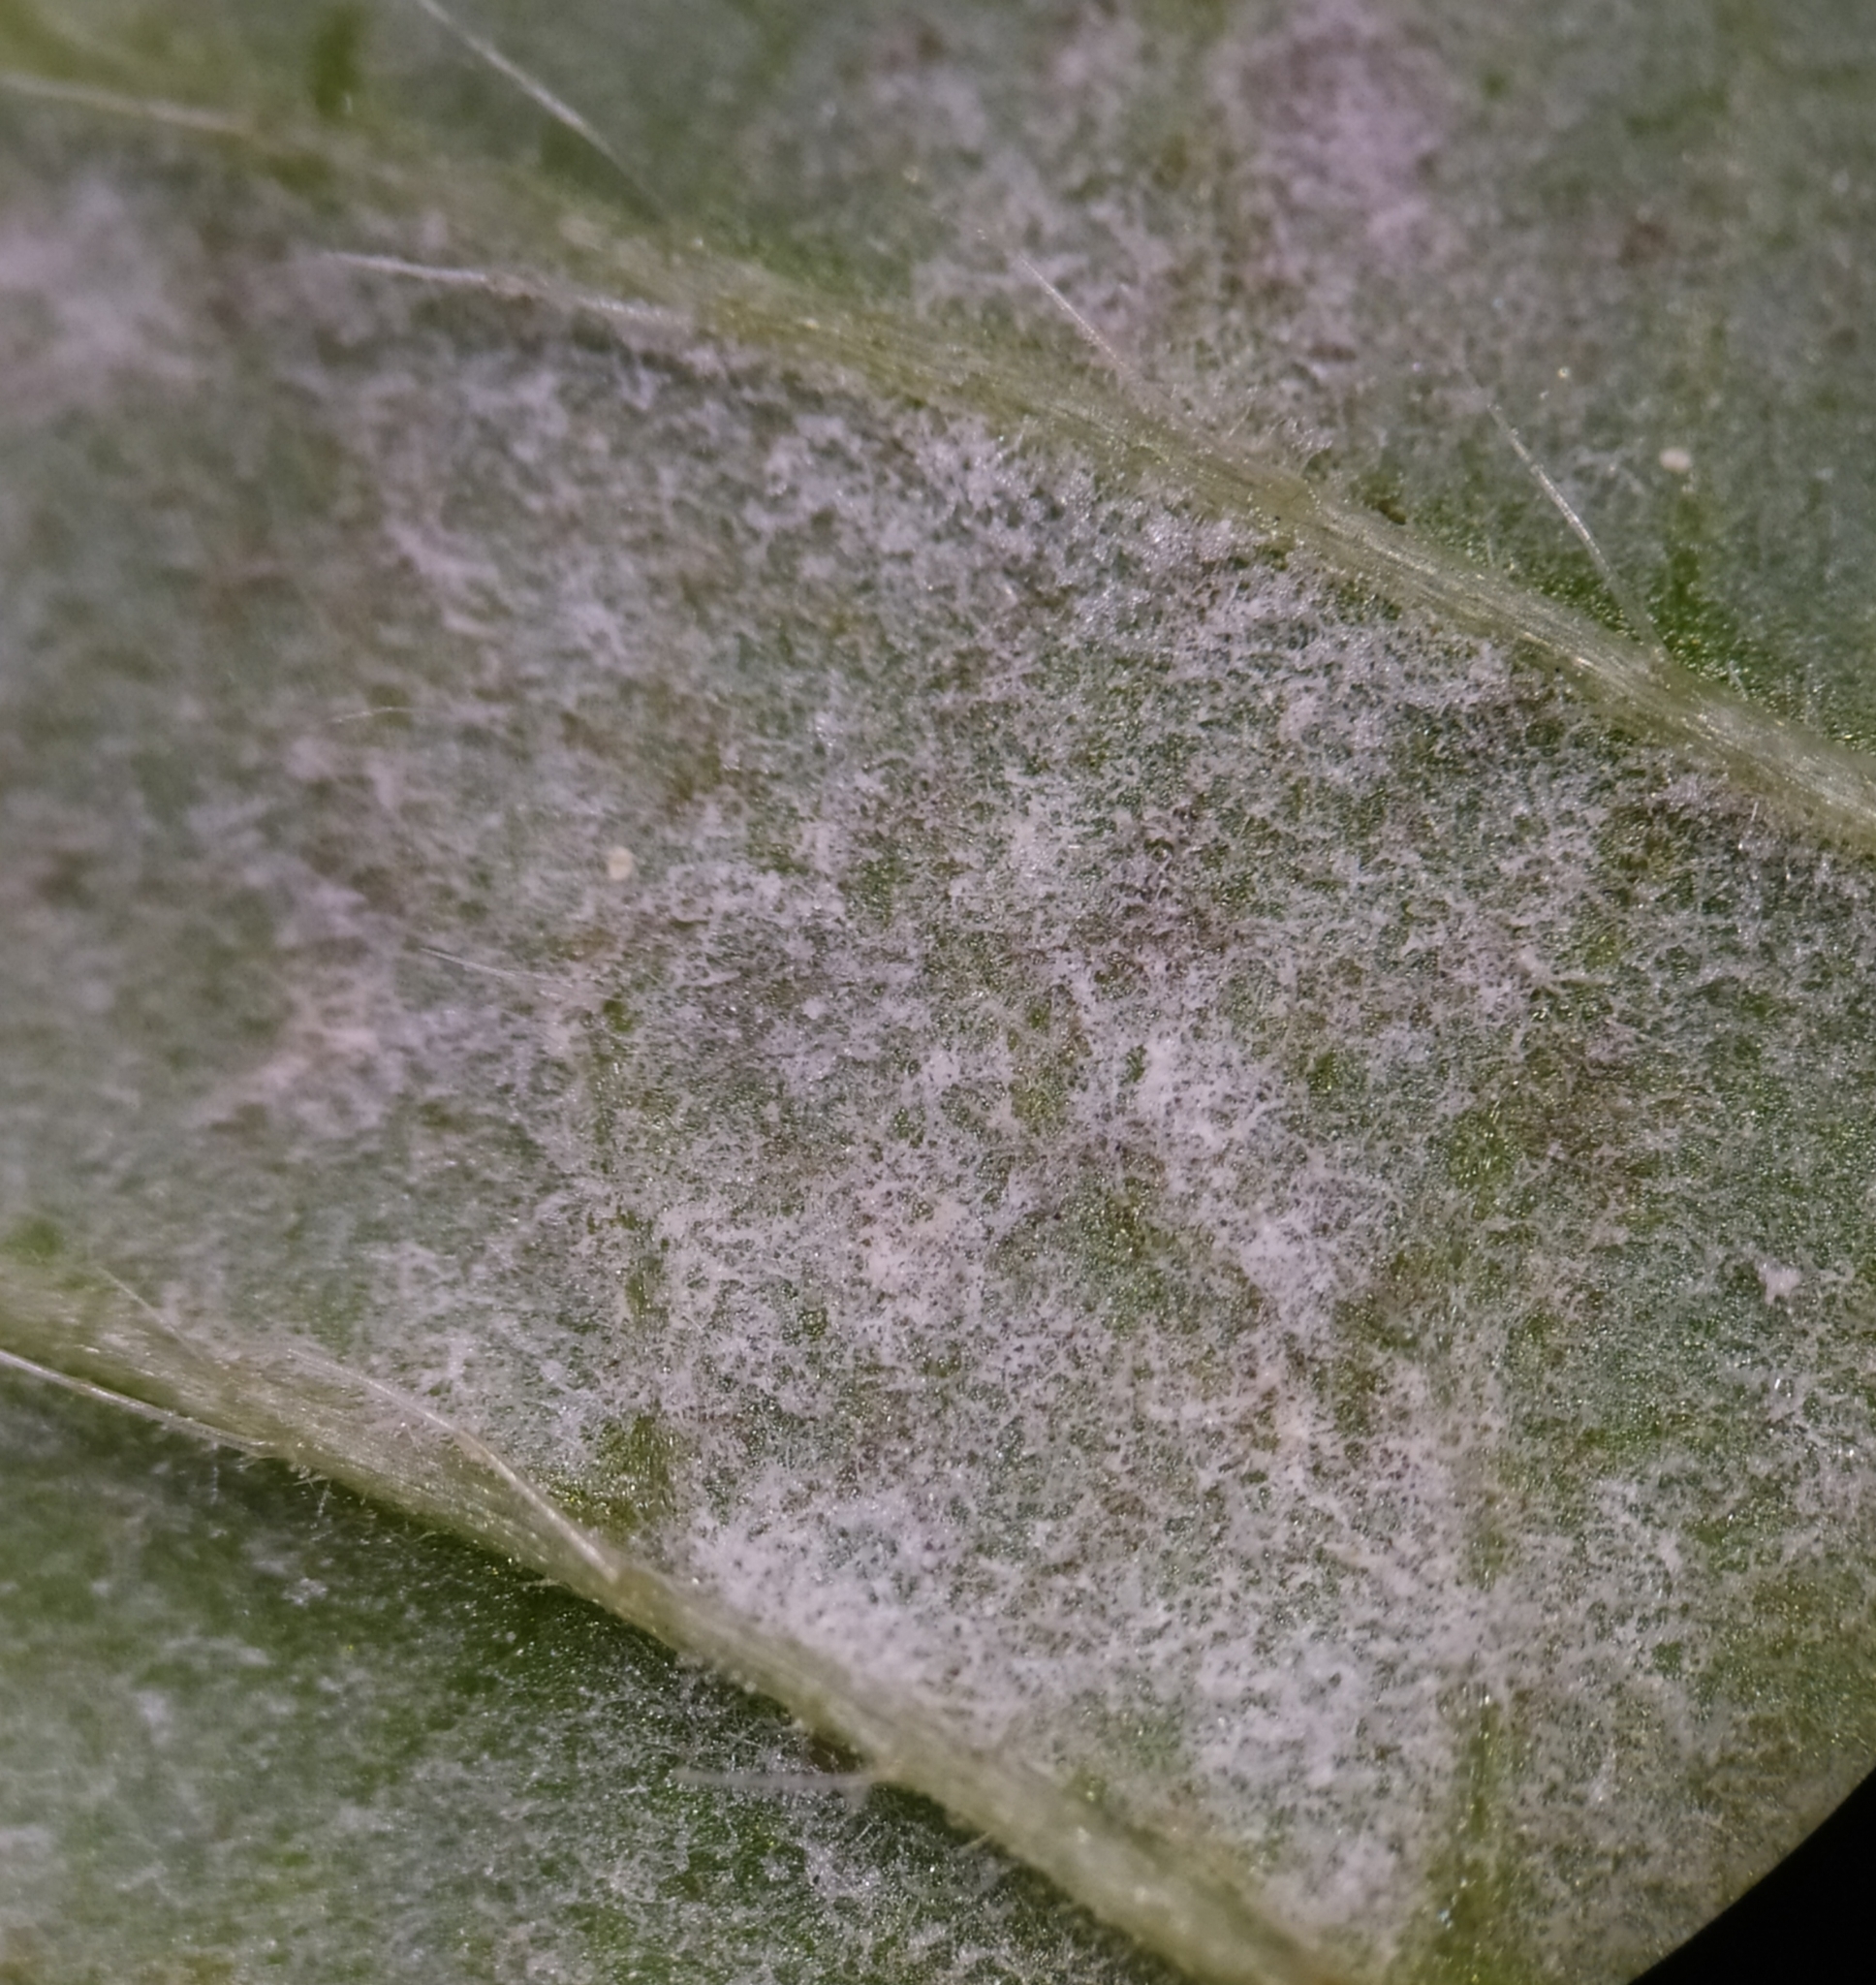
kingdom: Fungi
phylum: Ascomycota
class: Leotiomycetes
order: Helotiales
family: Erysiphaceae
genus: Neoerysiphe
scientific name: Neoerysiphe galeopsidis
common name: Mint mildew
